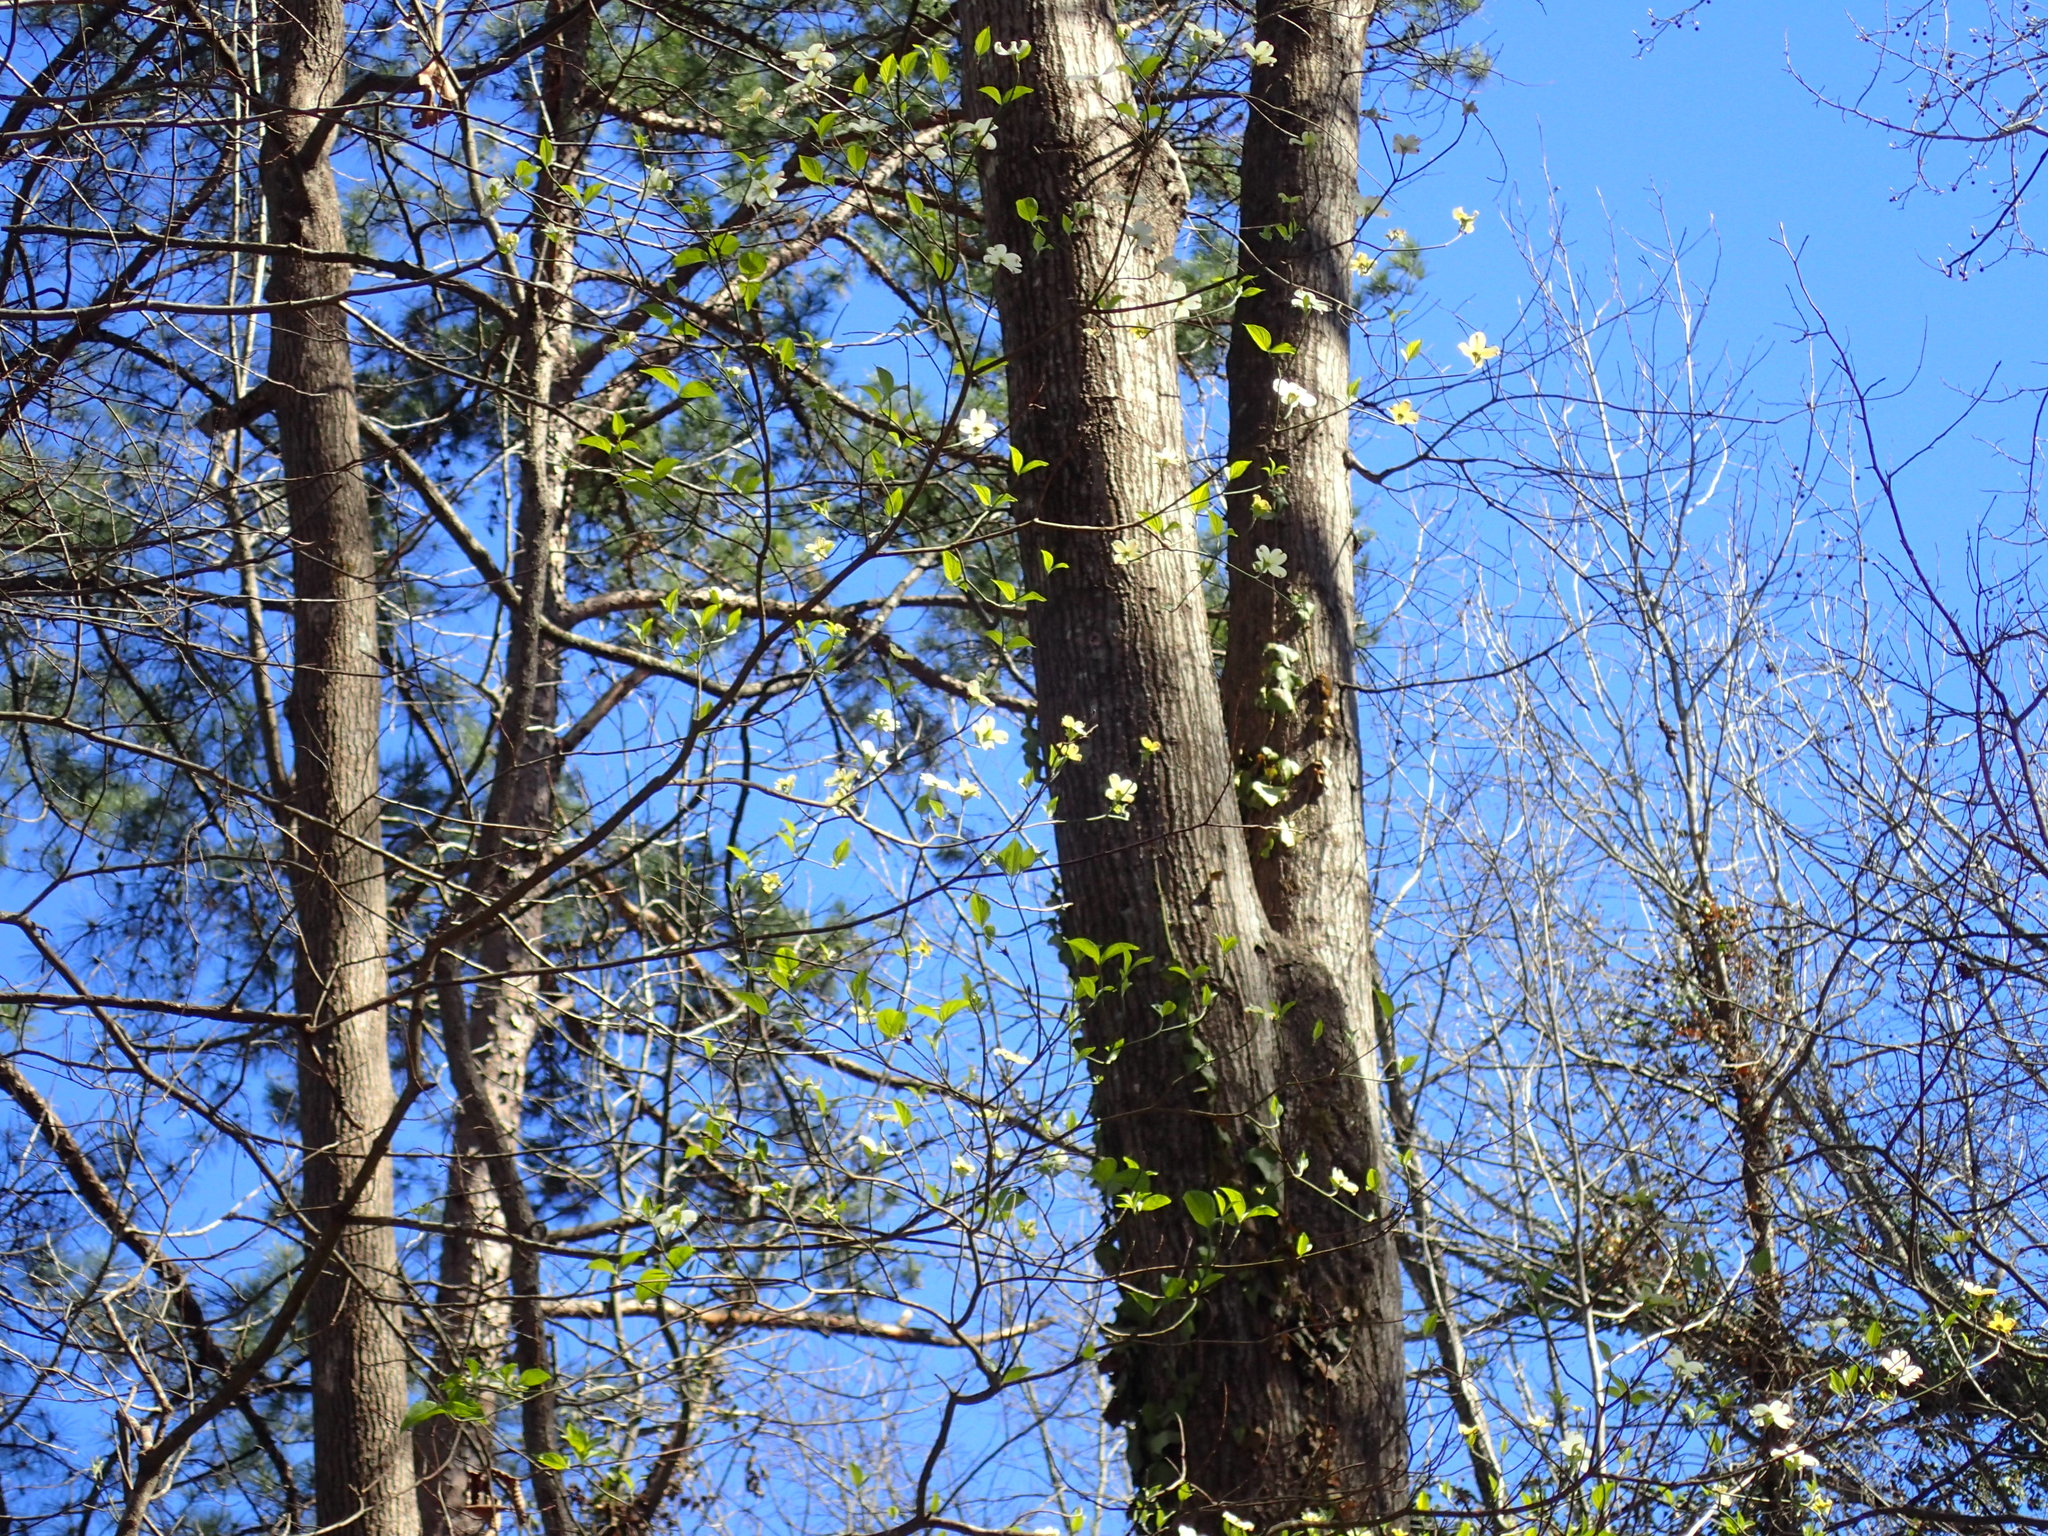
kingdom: Plantae
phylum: Tracheophyta
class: Magnoliopsida
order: Cornales
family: Cornaceae
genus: Cornus
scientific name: Cornus florida
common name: Flowering dogwood
